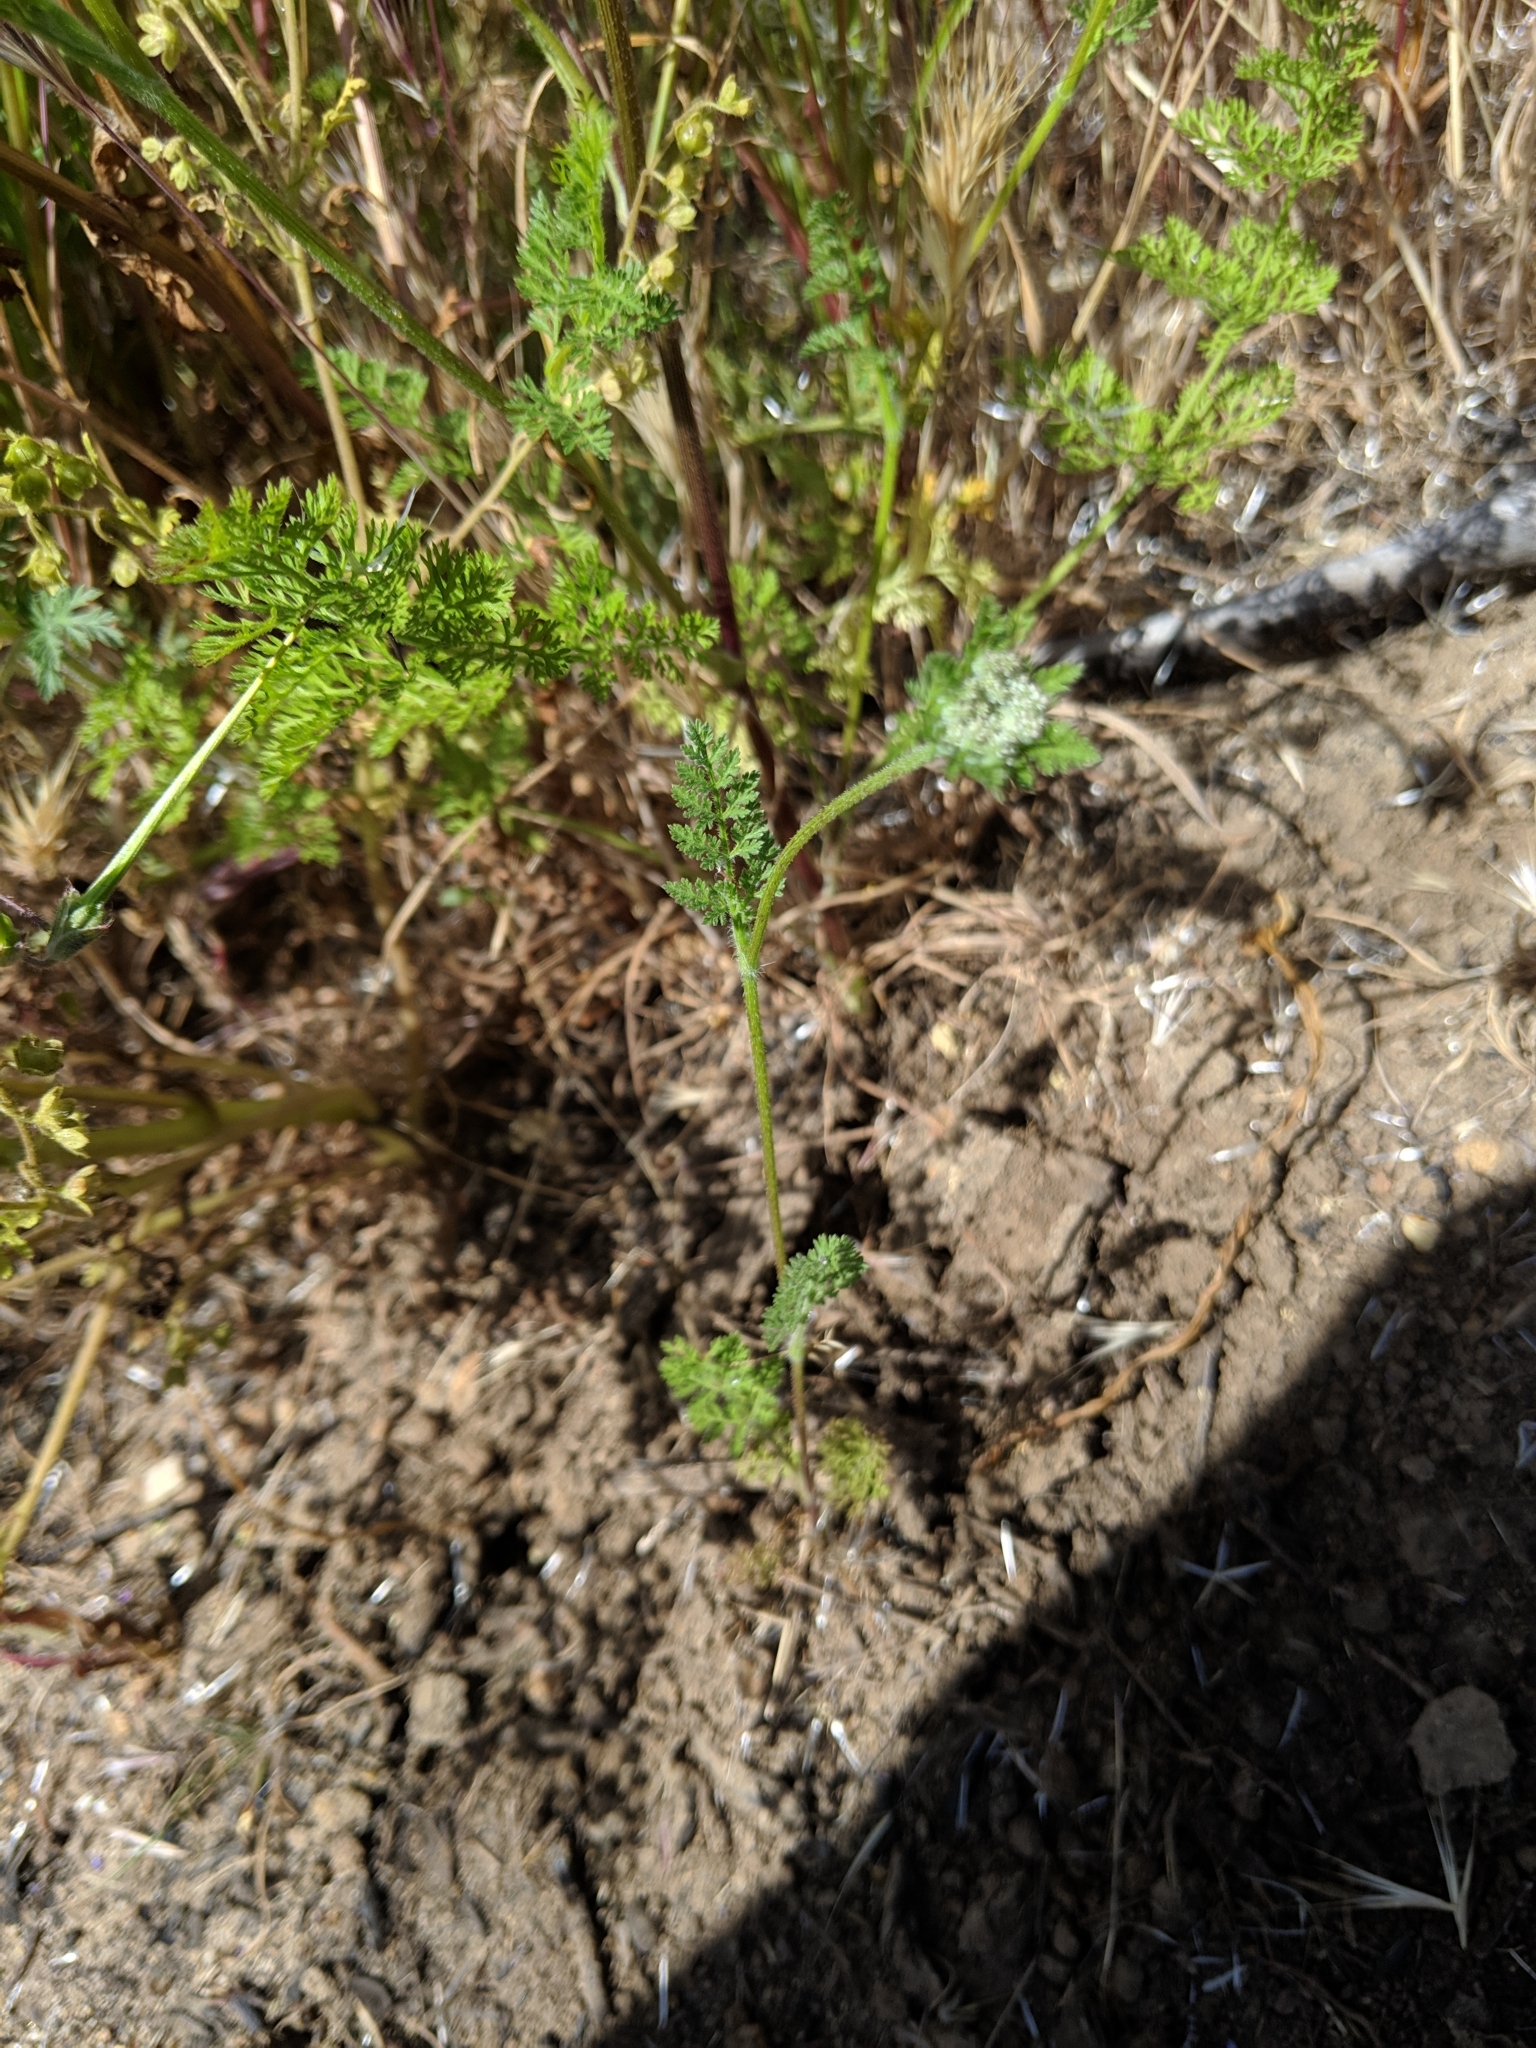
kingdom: Plantae
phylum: Tracheophyta
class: Magnoliopsida
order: Apiales
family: Apiaceae
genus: Daucus
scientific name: Daucus pusillus
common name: Southwest wild carrot
